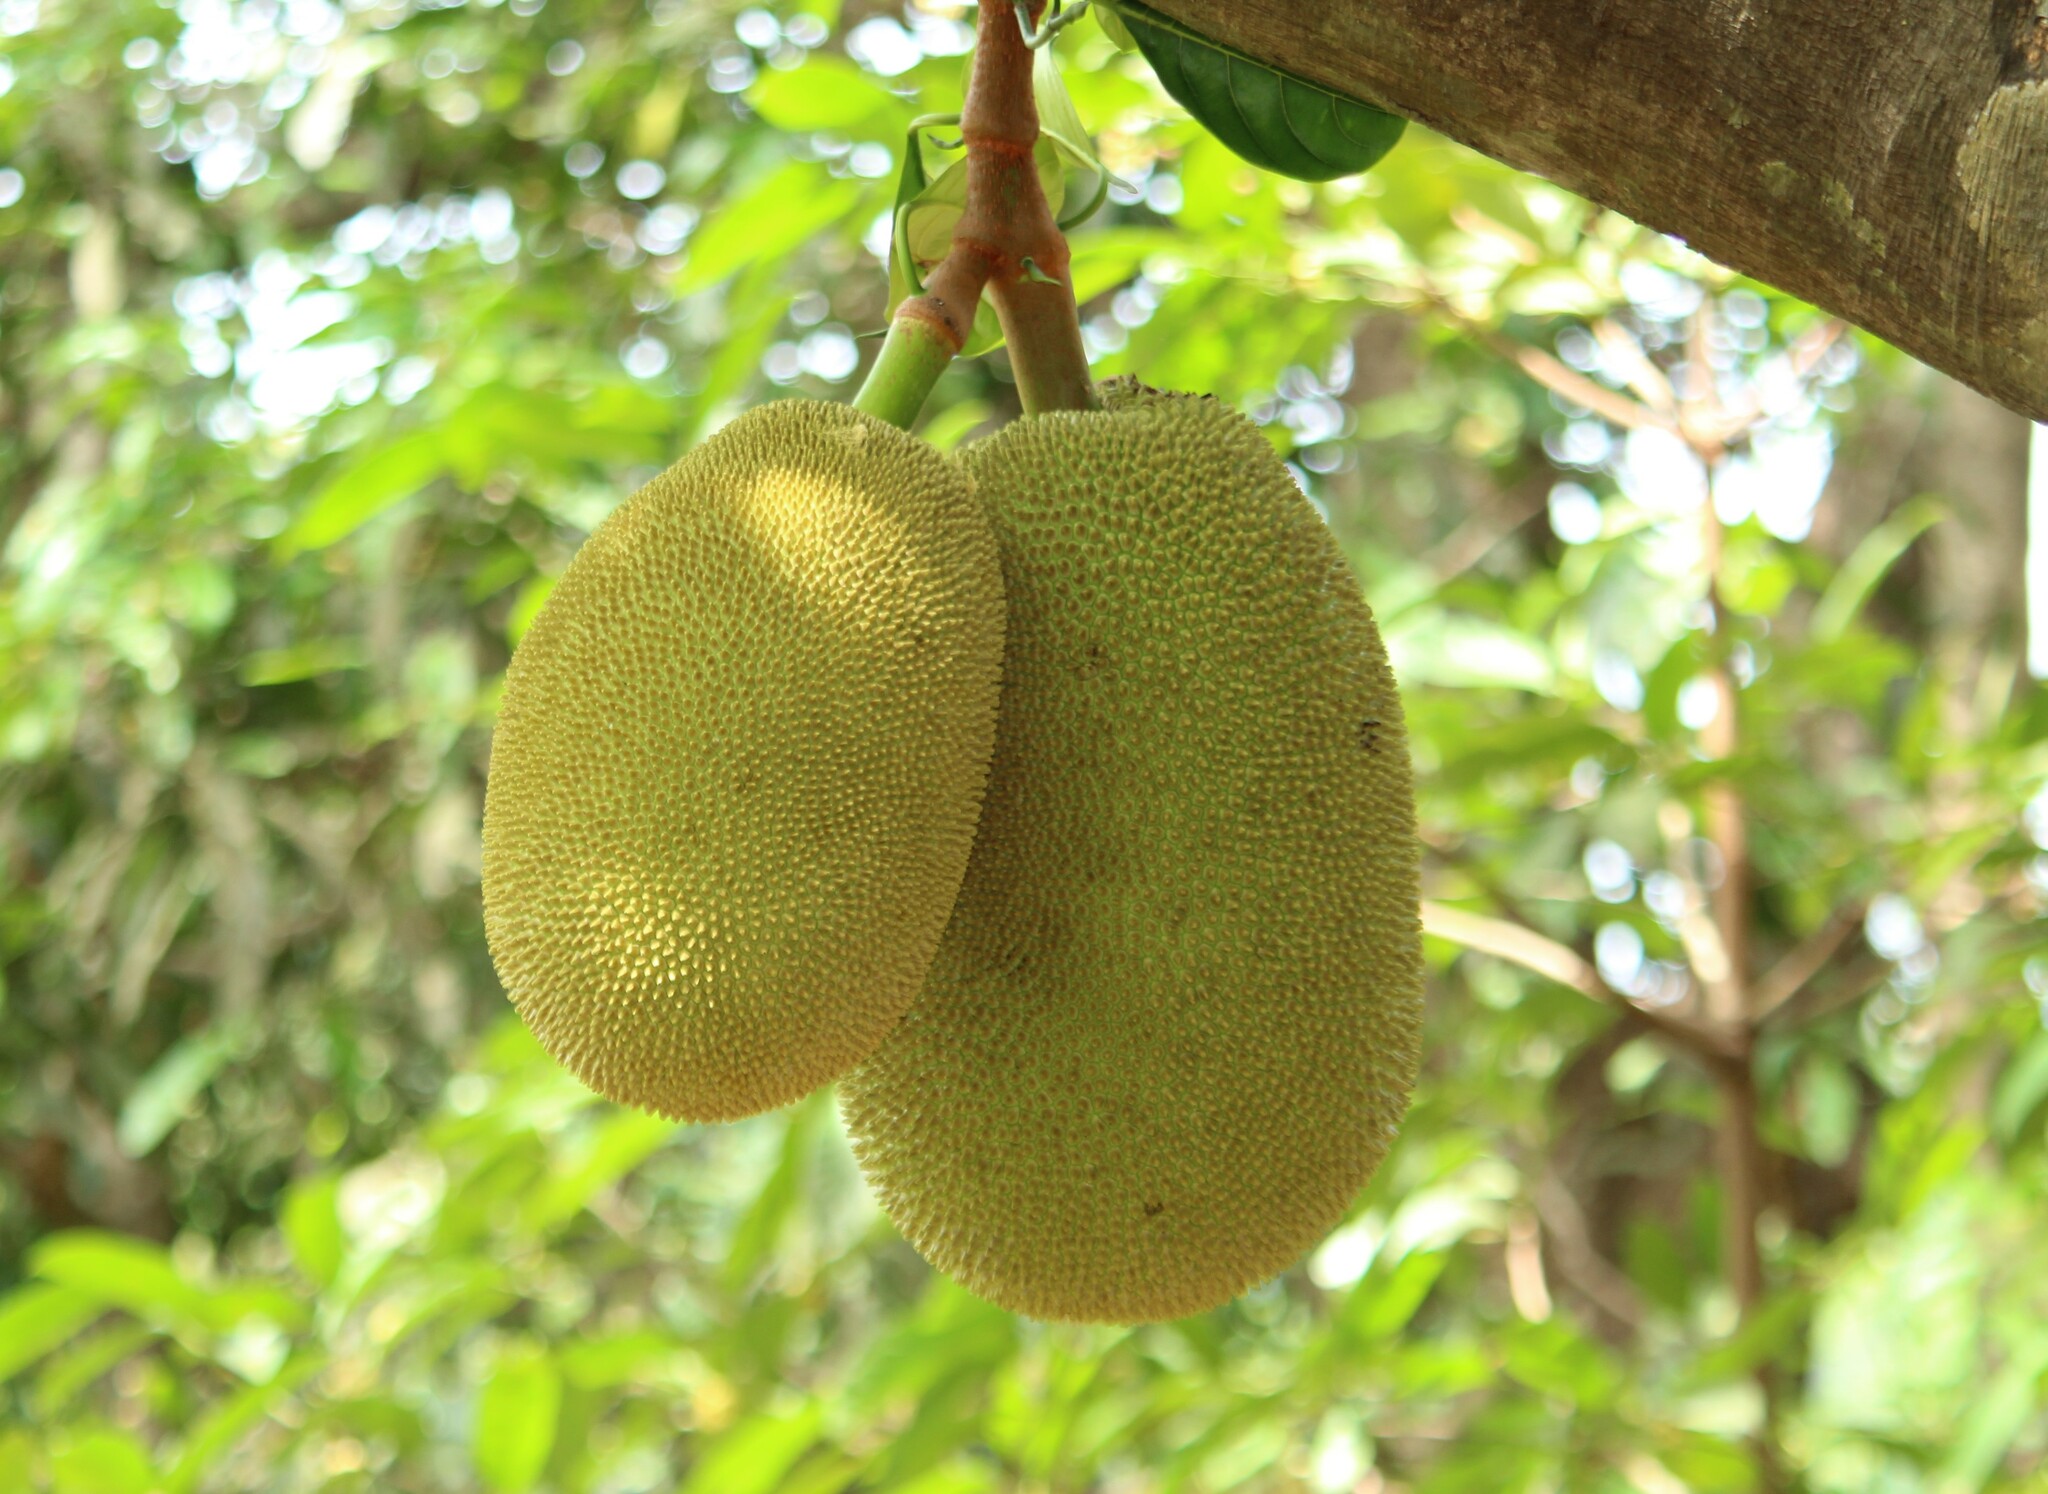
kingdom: Plantae
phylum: Tracheophyta
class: Magnoliopsida
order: Rosales
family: Moraceae
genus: Artocarpus
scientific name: Artocarpus heterophyllus
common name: Jackfruit
